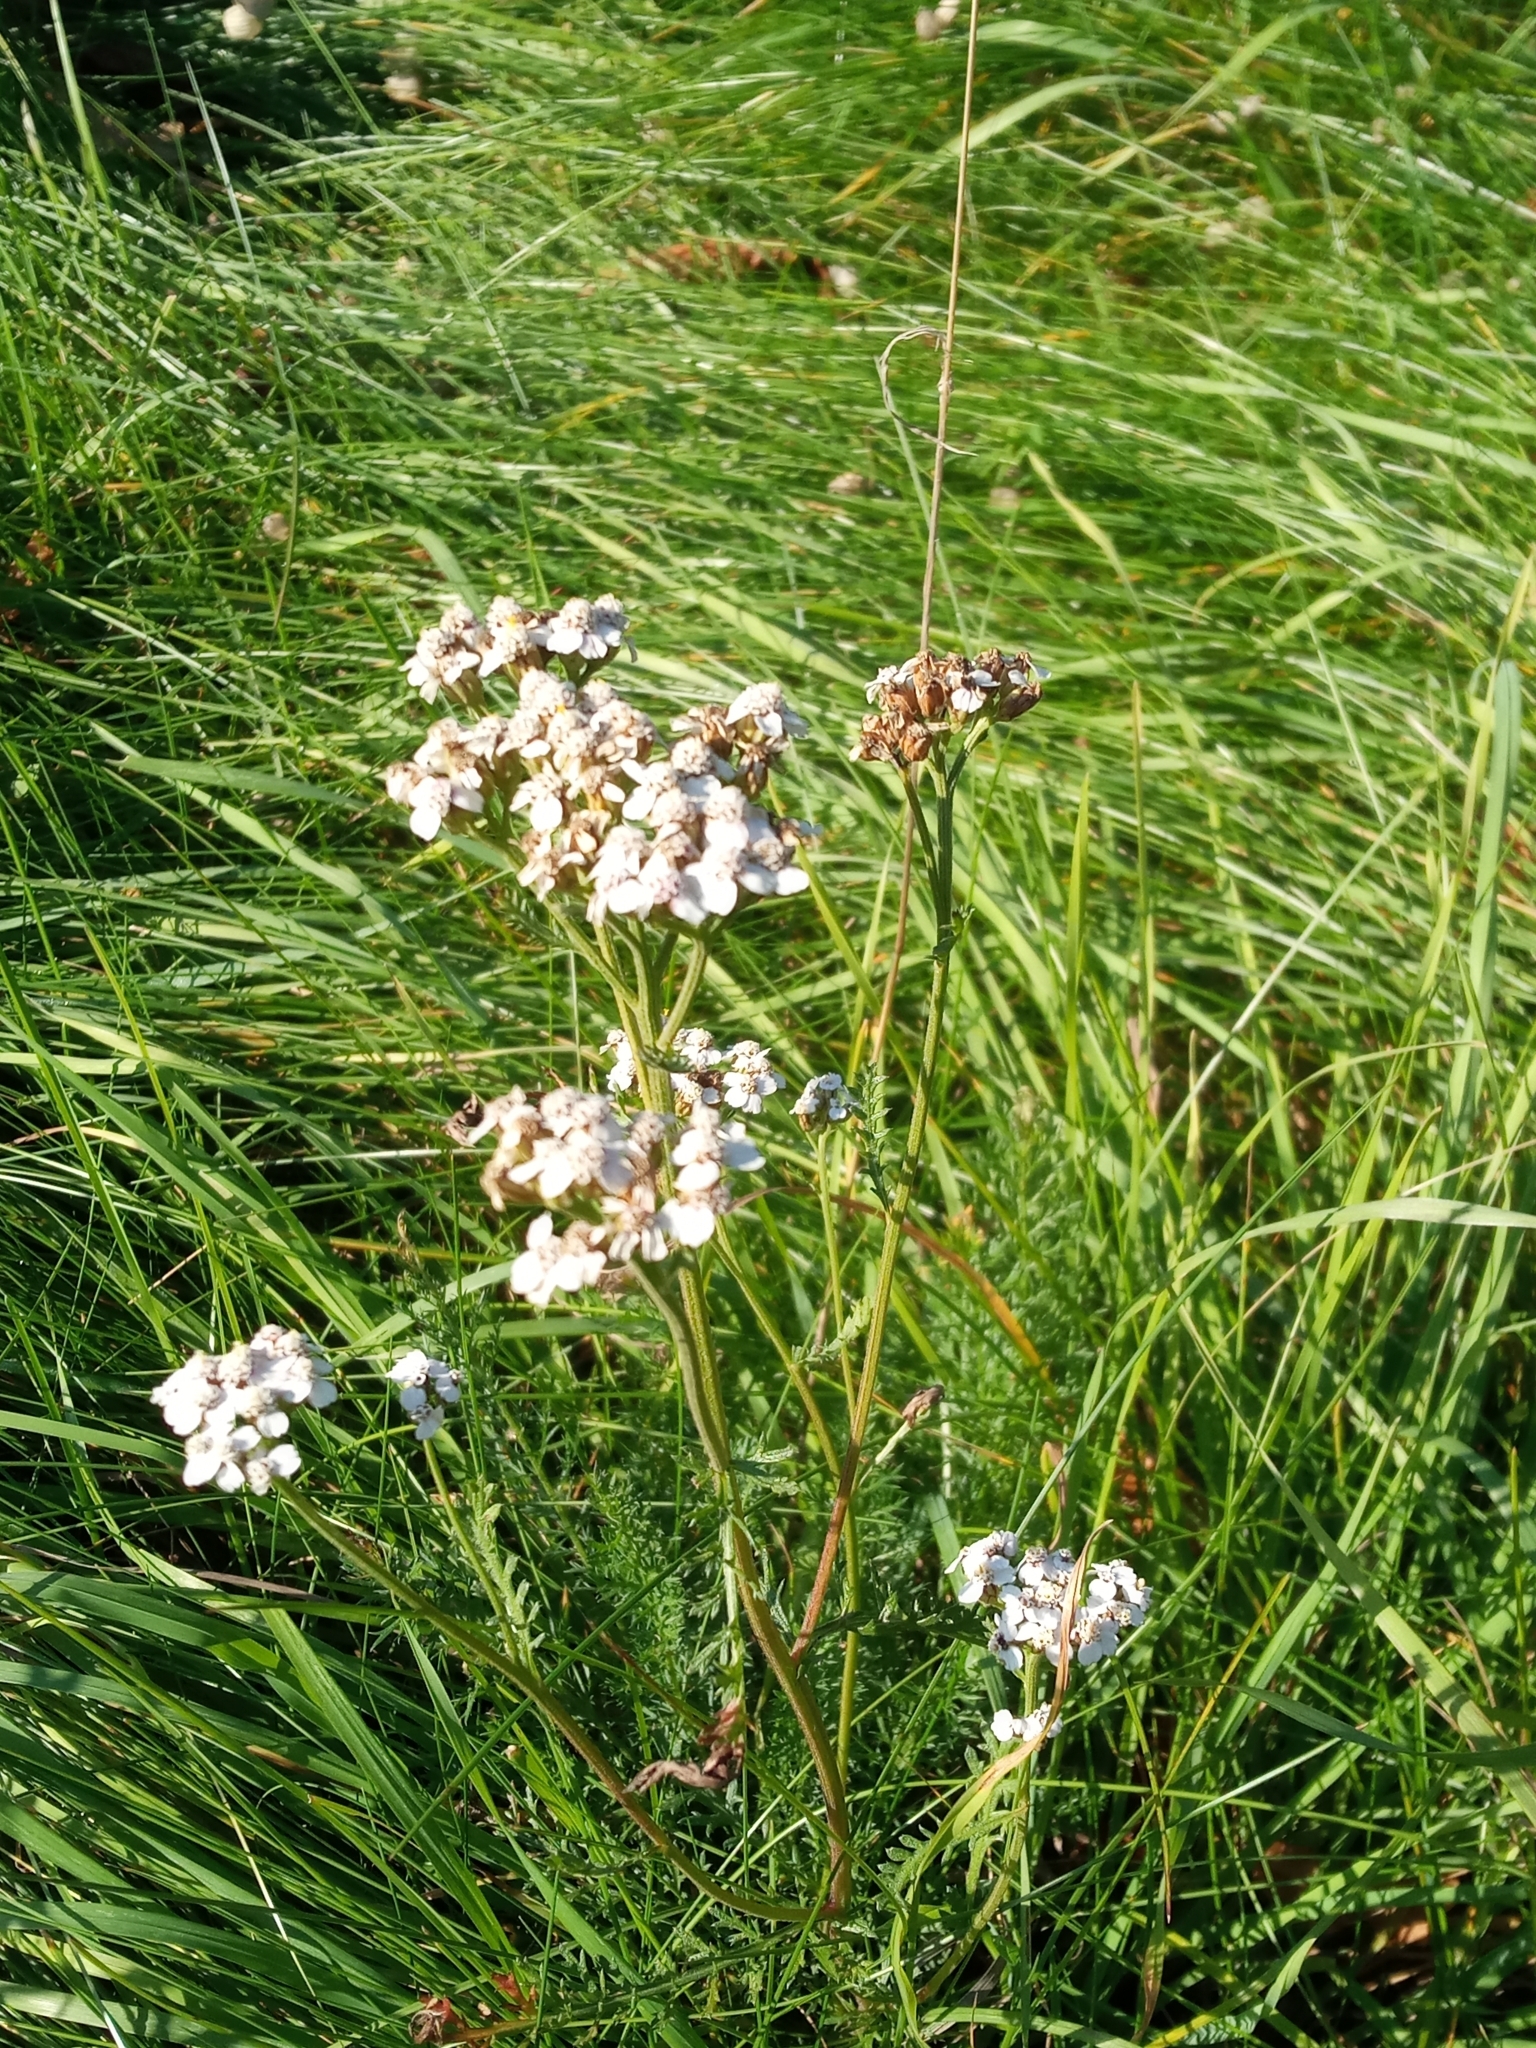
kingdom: Plantae
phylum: Tracheophyta
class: Magnoliopsida
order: Asterales
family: Asteraceae
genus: Achillea
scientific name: Achillea millefolium
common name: Yarrow
